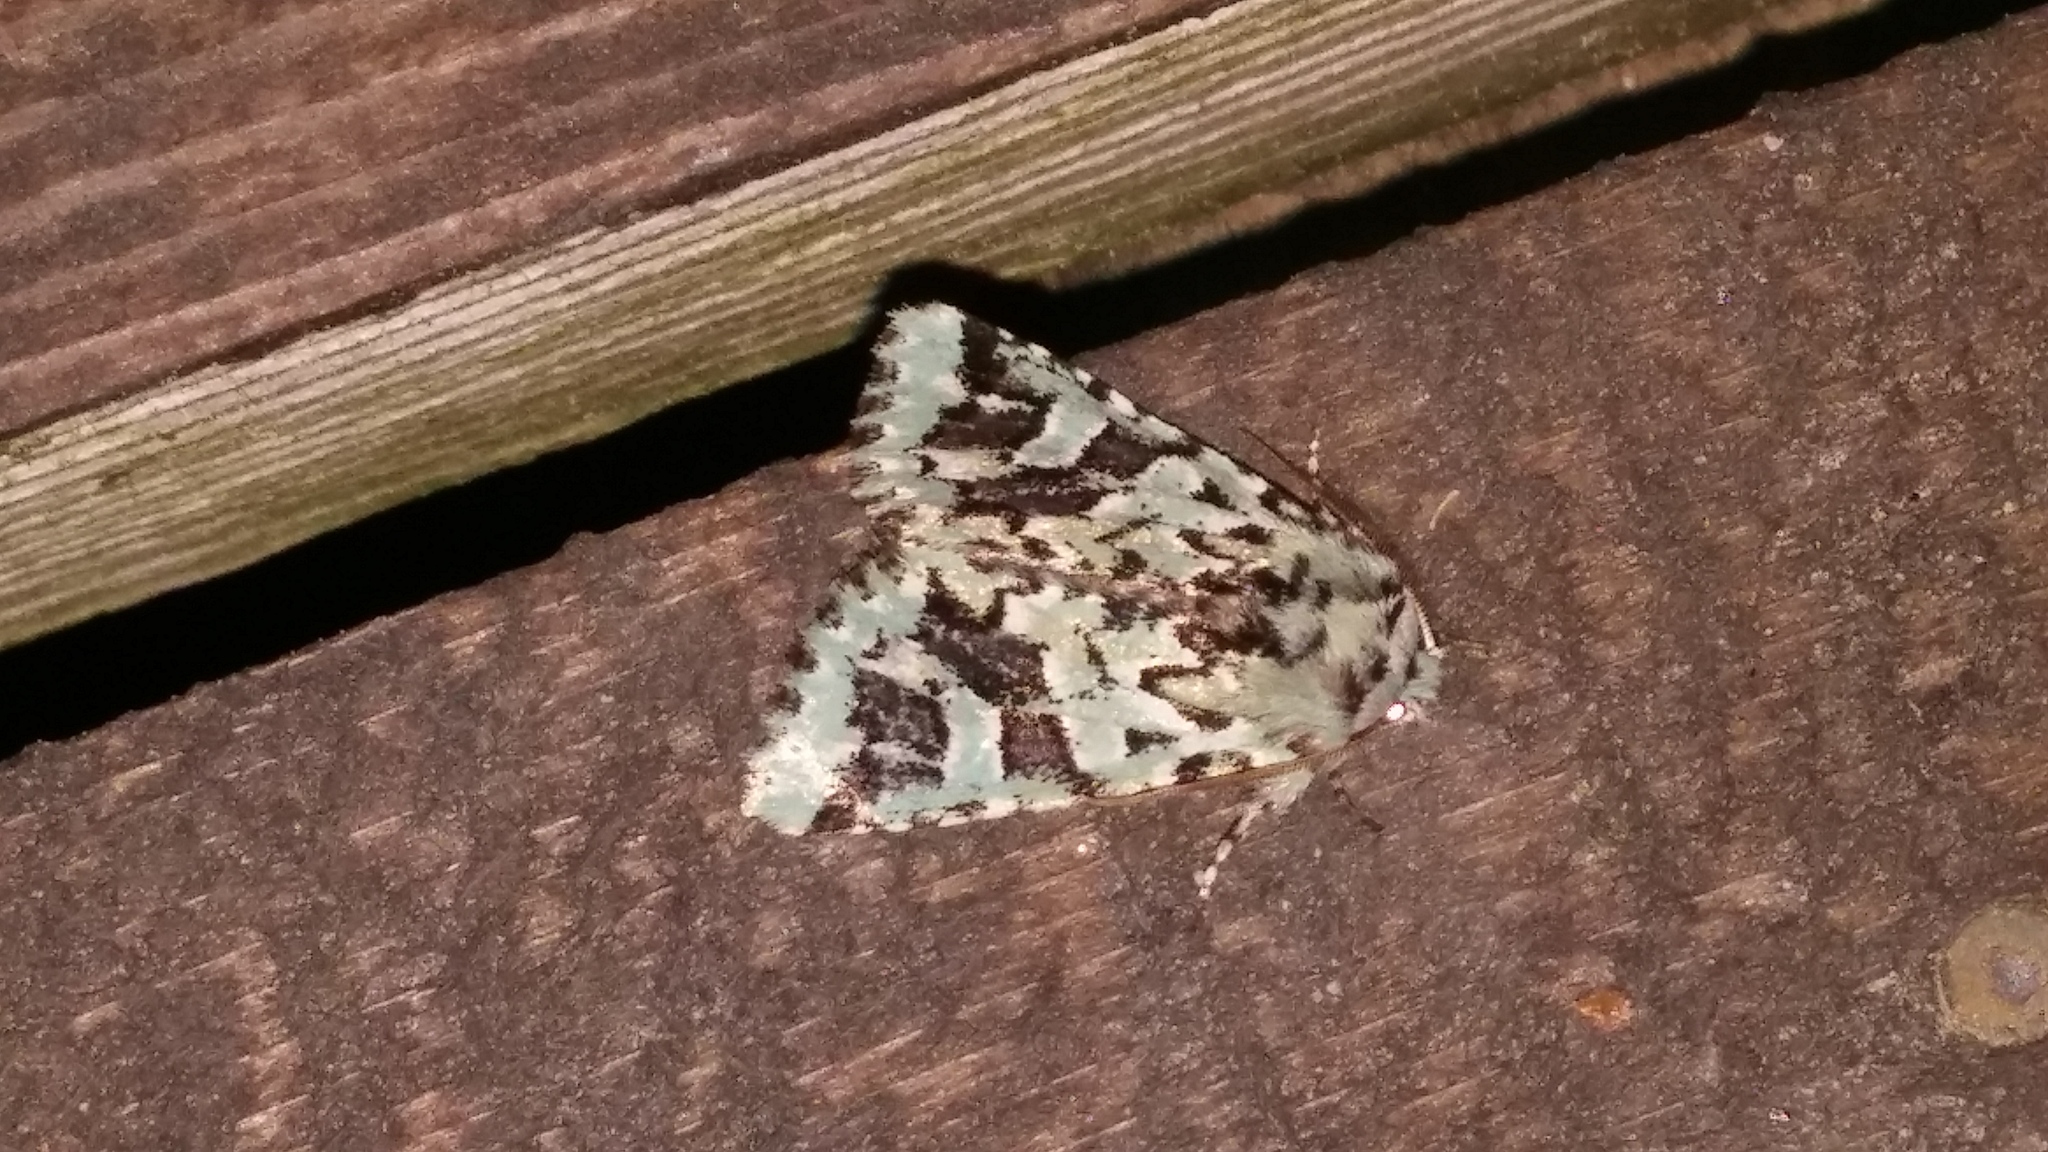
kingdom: Animalia
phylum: Arthropoda
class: Insecta
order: Lepidoptera
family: Noctuidae
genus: Feralia
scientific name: Feralia comstocki
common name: Comstock's sallow
